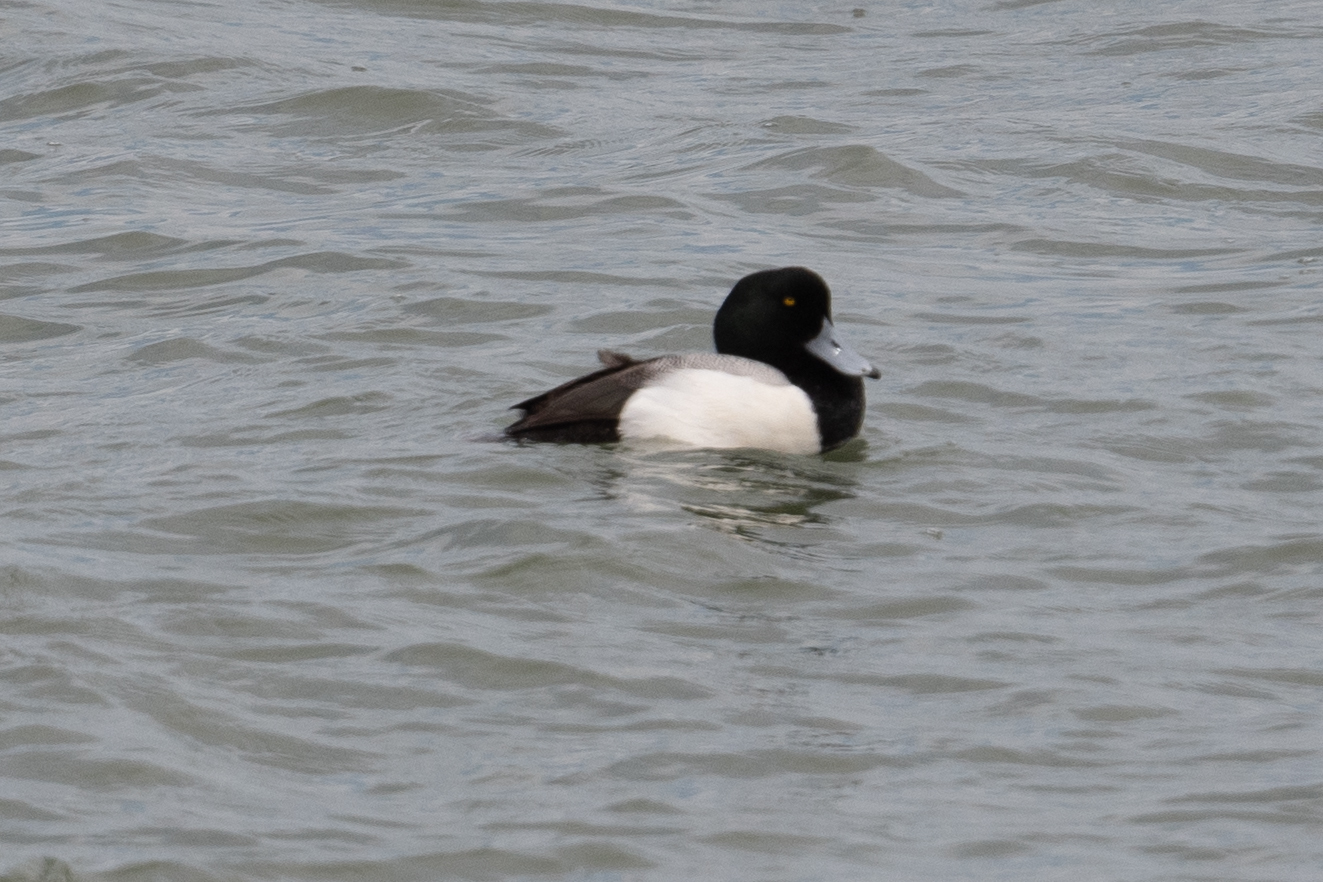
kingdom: Animalia
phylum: Chordata
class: Aves
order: Anseriformes
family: Anatidae
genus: Aythya
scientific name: Aythya marila
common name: Greater scaup
